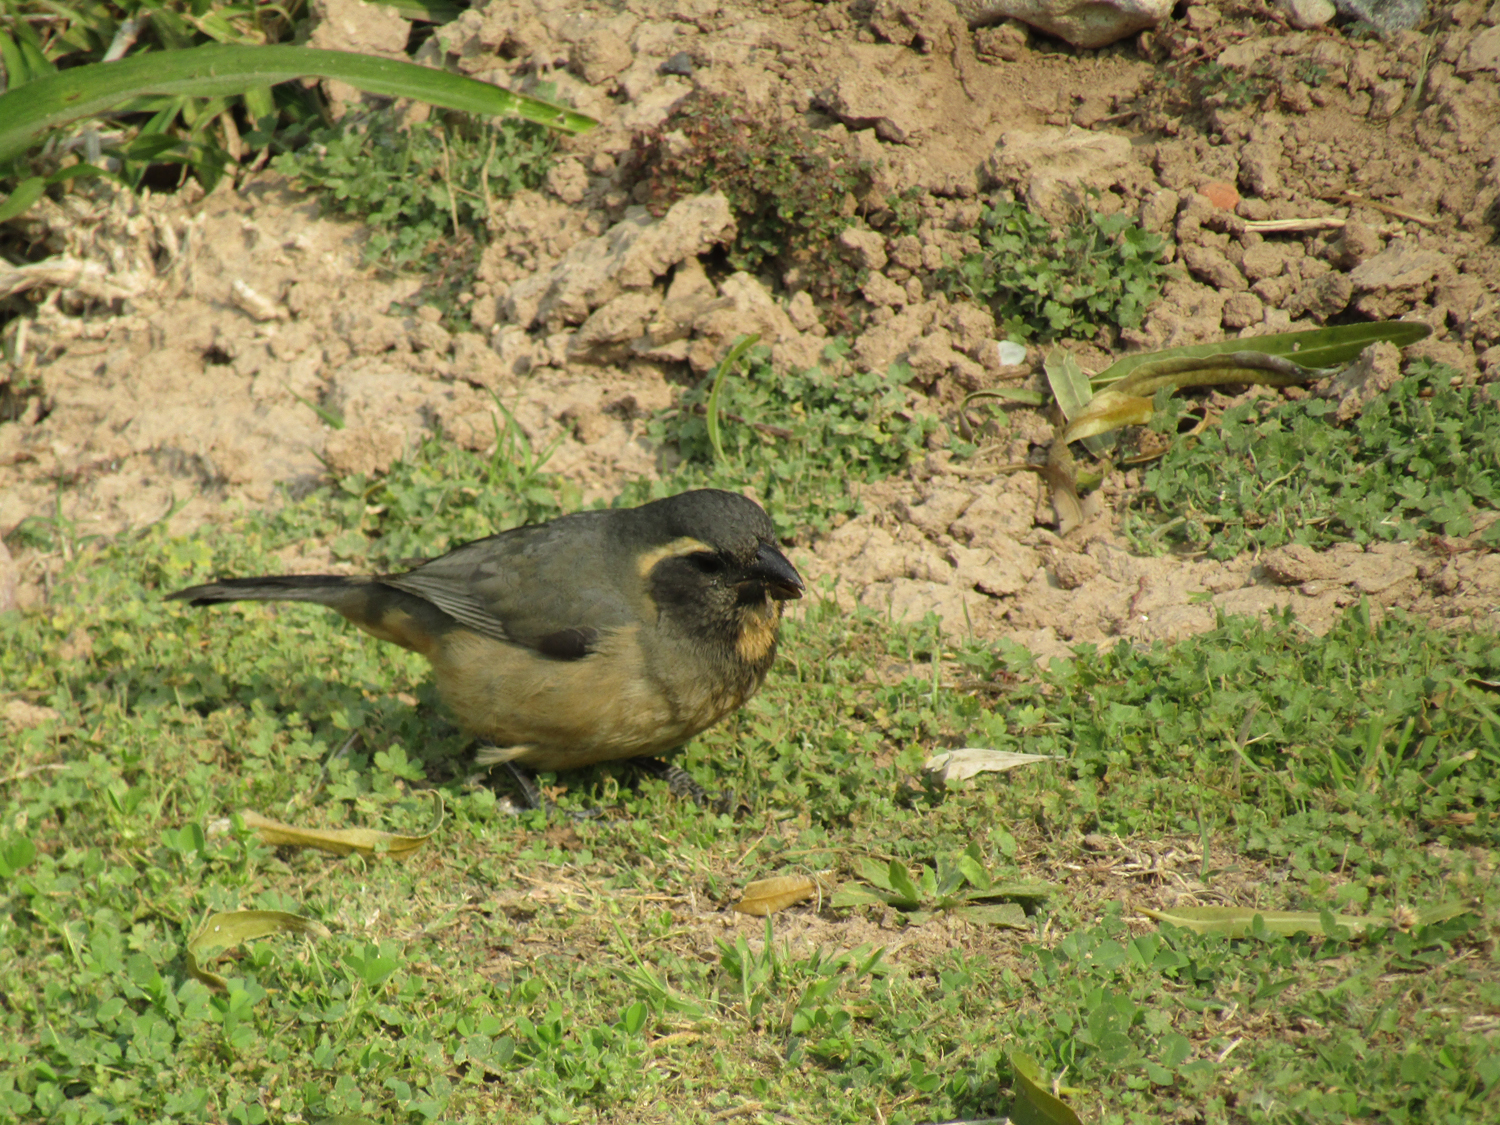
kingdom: Animalia
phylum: Chordata
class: Aves
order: Passeriformes
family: Thraupidae
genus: Saltator
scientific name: Saltator aurantiirostris
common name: Golden-billed saltator
